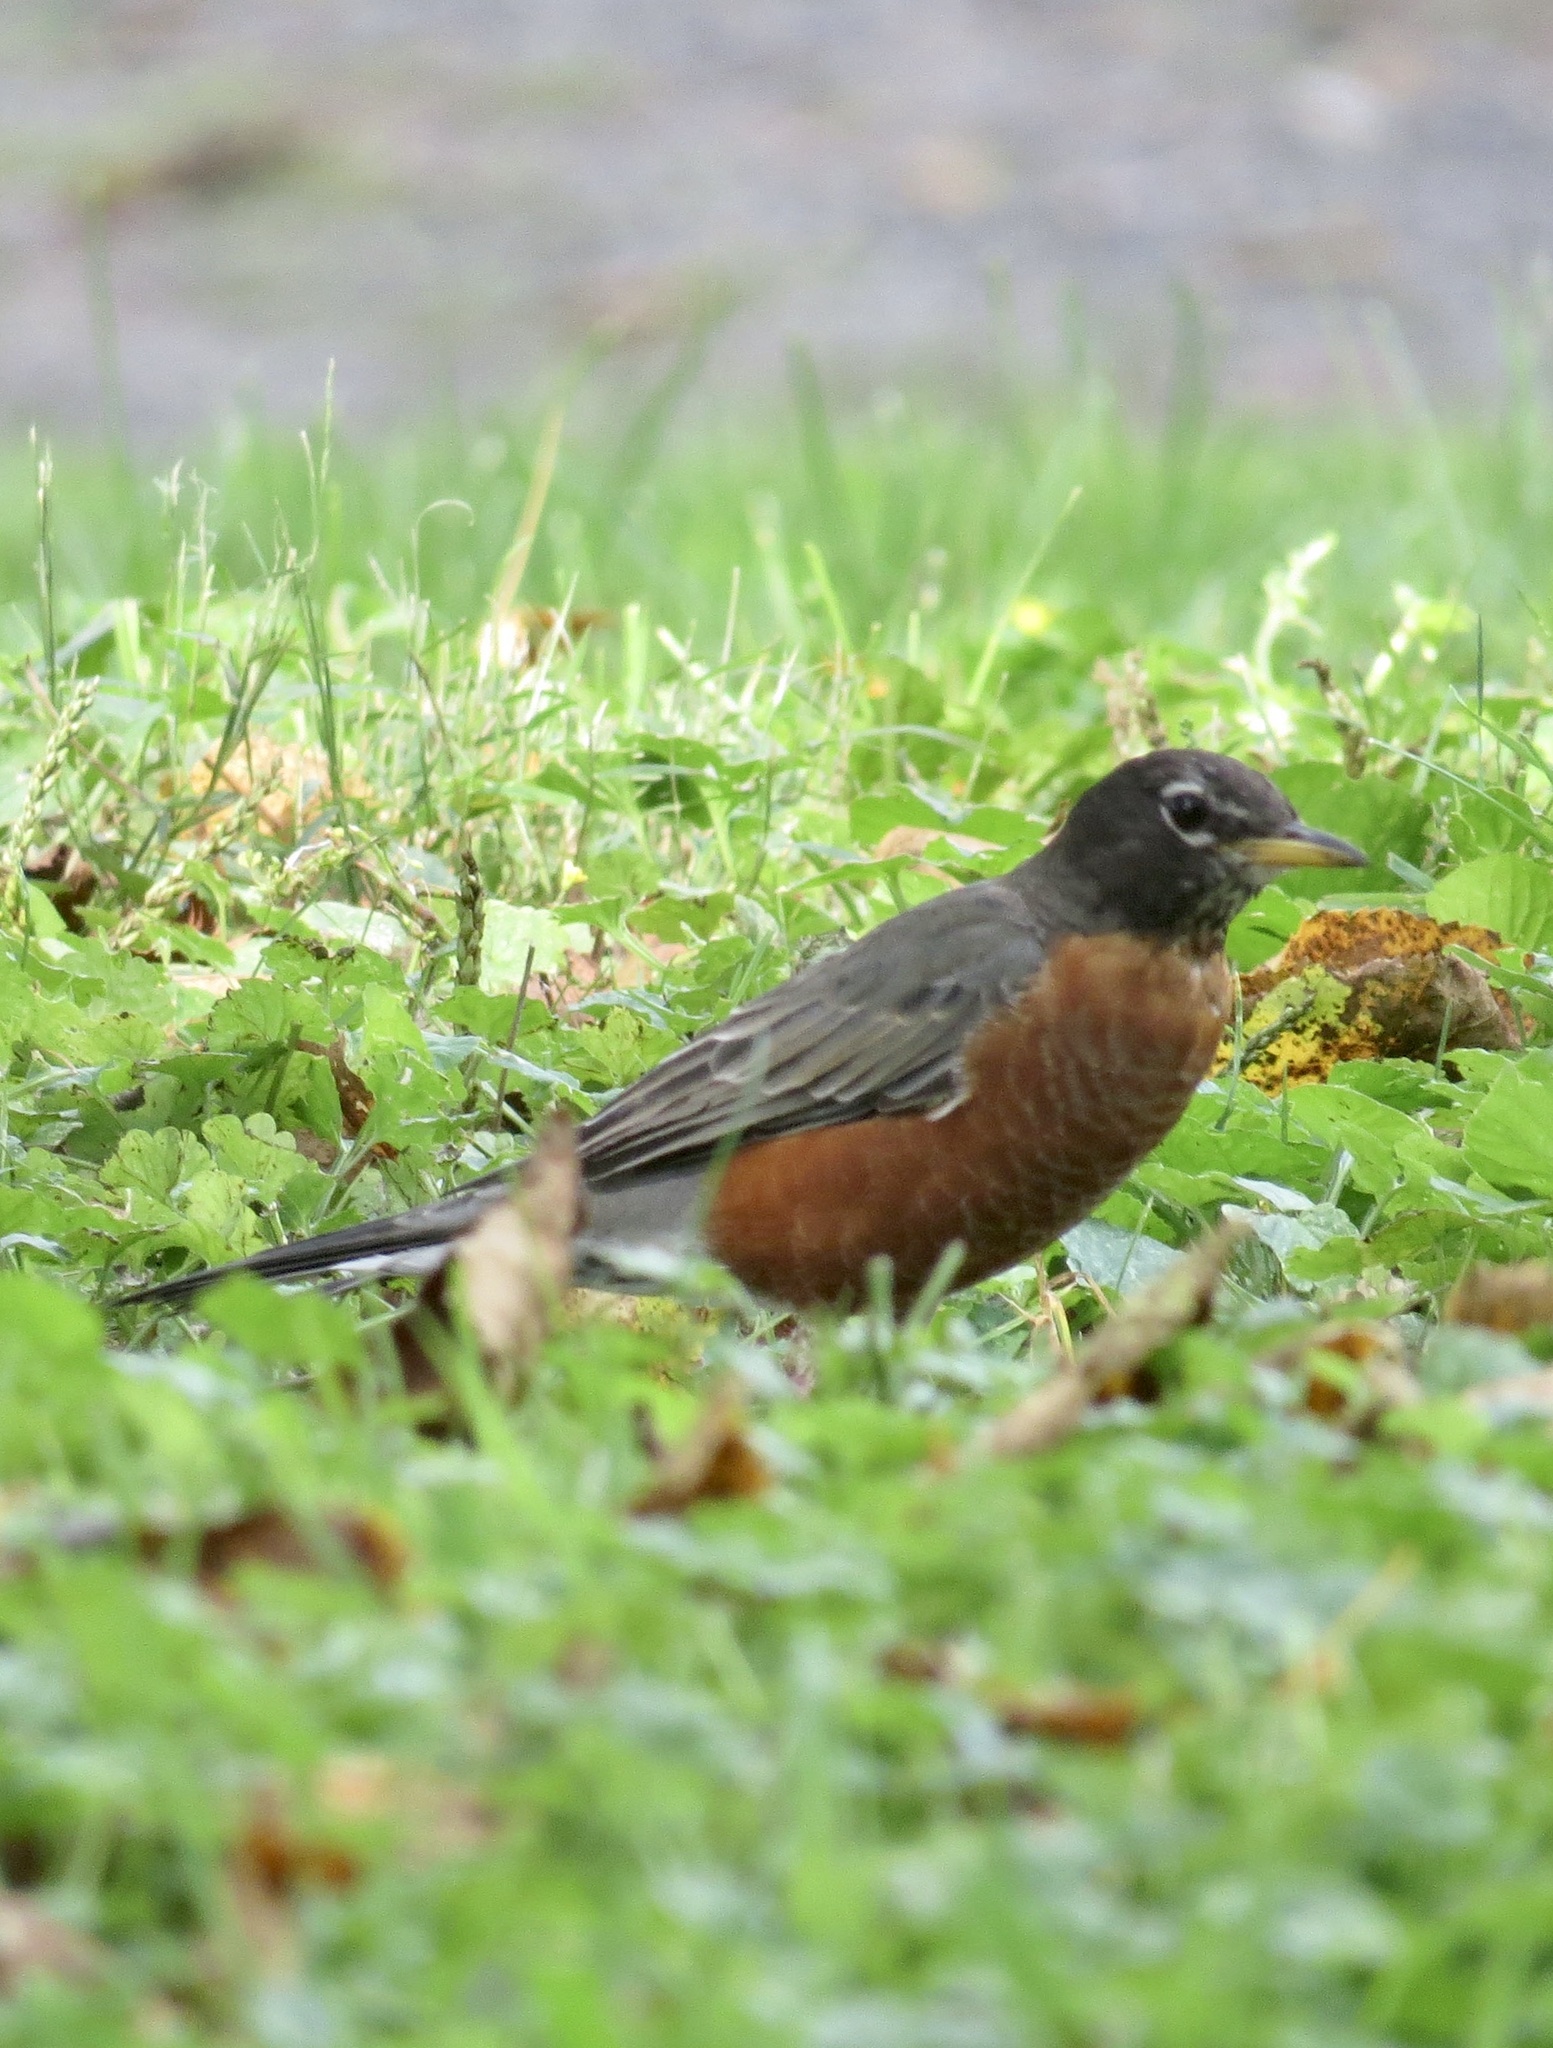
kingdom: Animalia
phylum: Chordata
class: Aves
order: Passeriformes
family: Turdidae
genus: Turdus
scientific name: Turdus migratorius
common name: American robin
